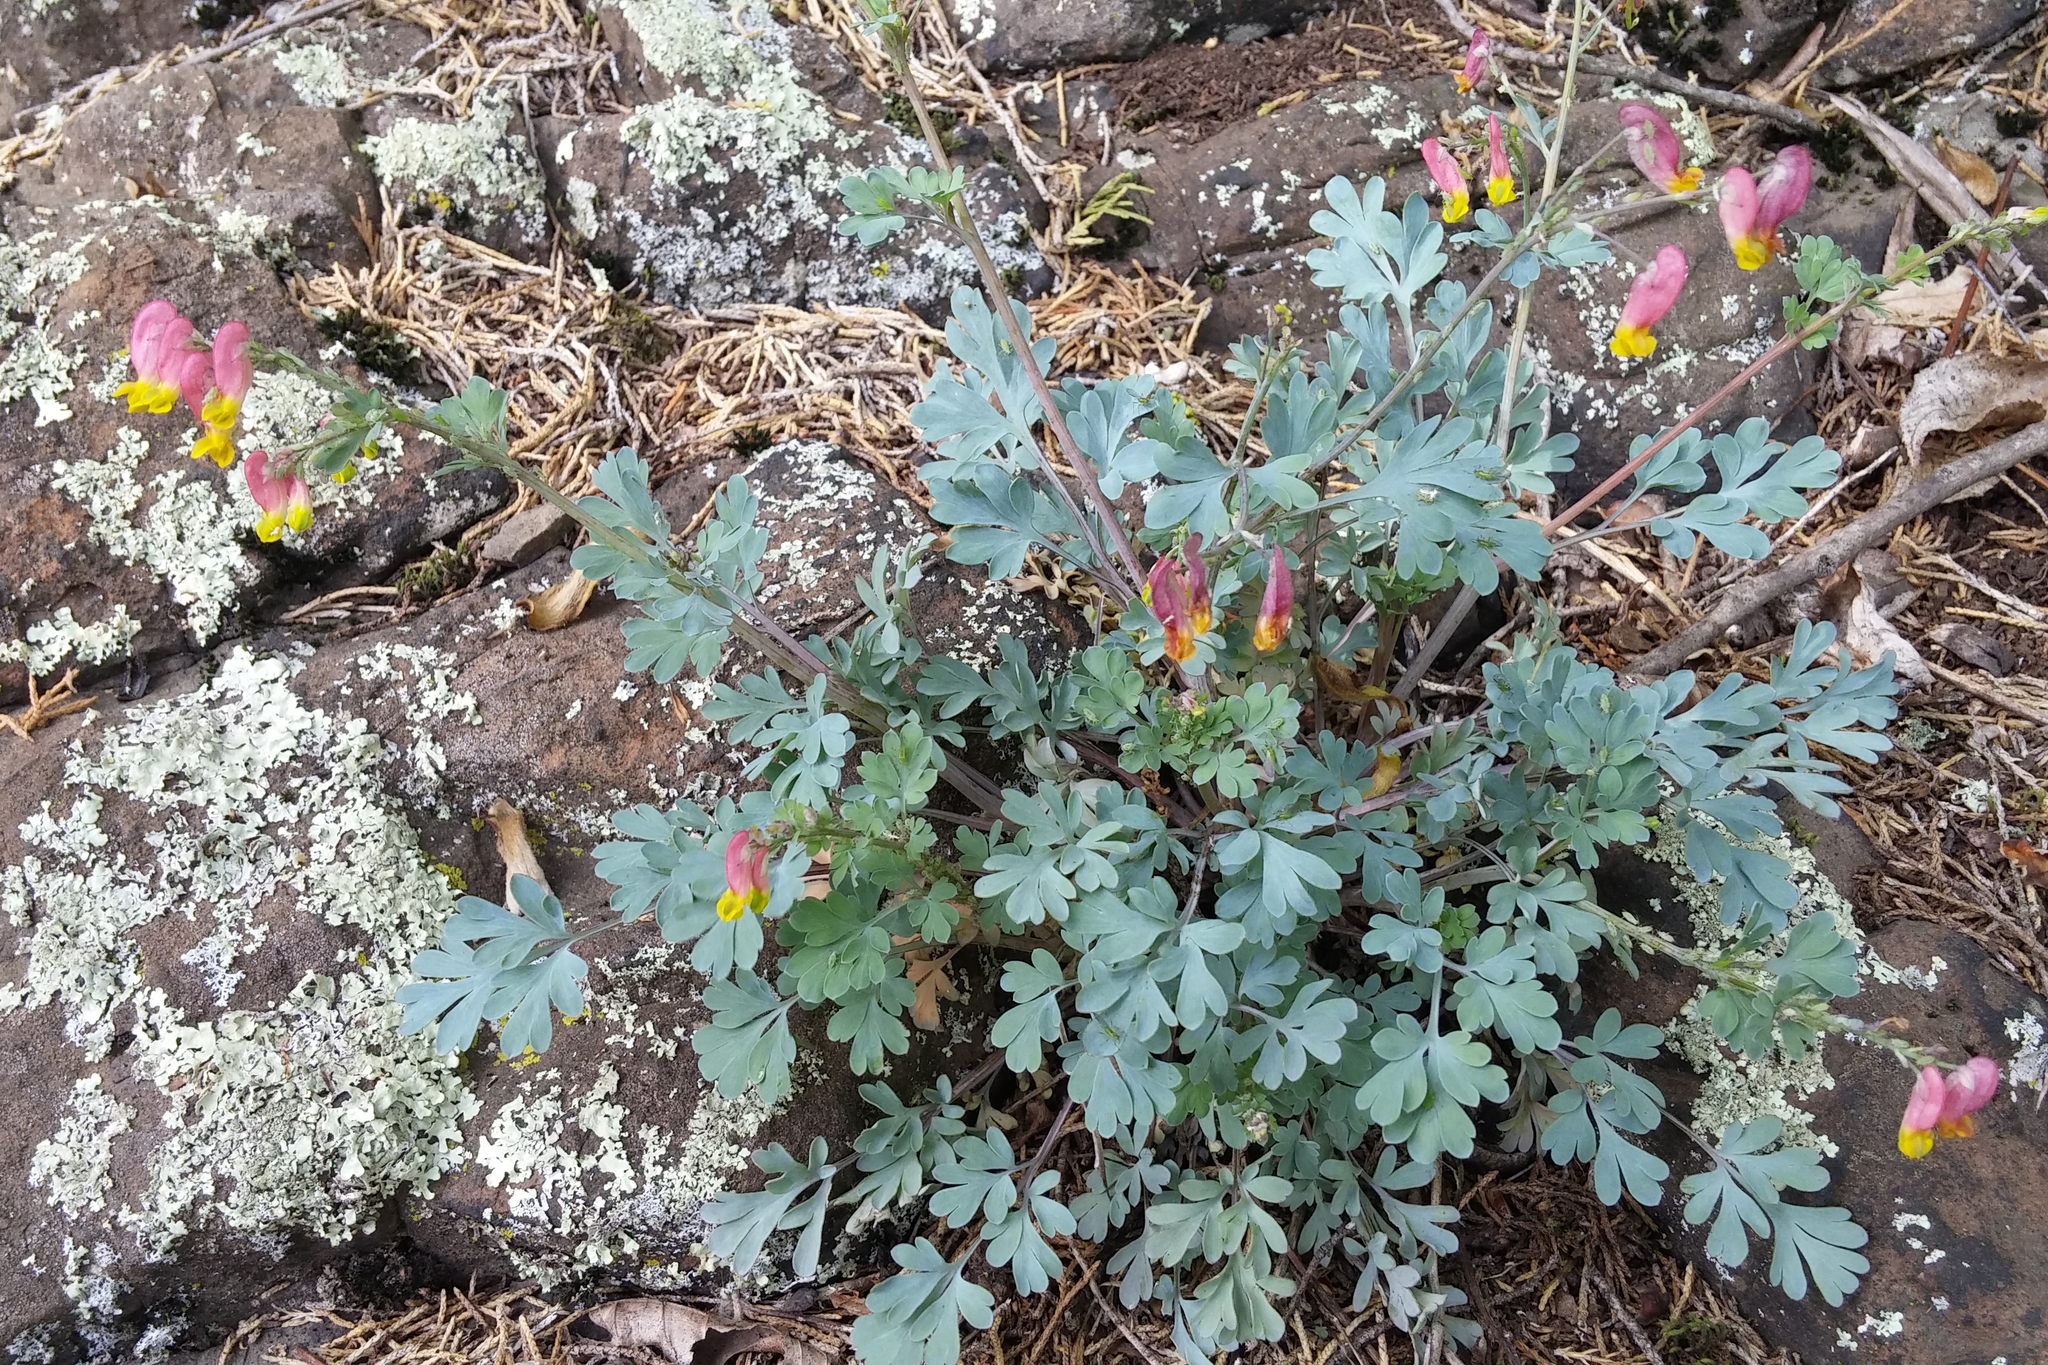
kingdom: Plantae
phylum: Tracheophyta
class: Magnoliopsida
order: Ranunculales
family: Papaveraceae
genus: Capnoides
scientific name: Capnoides sempervirens
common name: Rock harlequin
